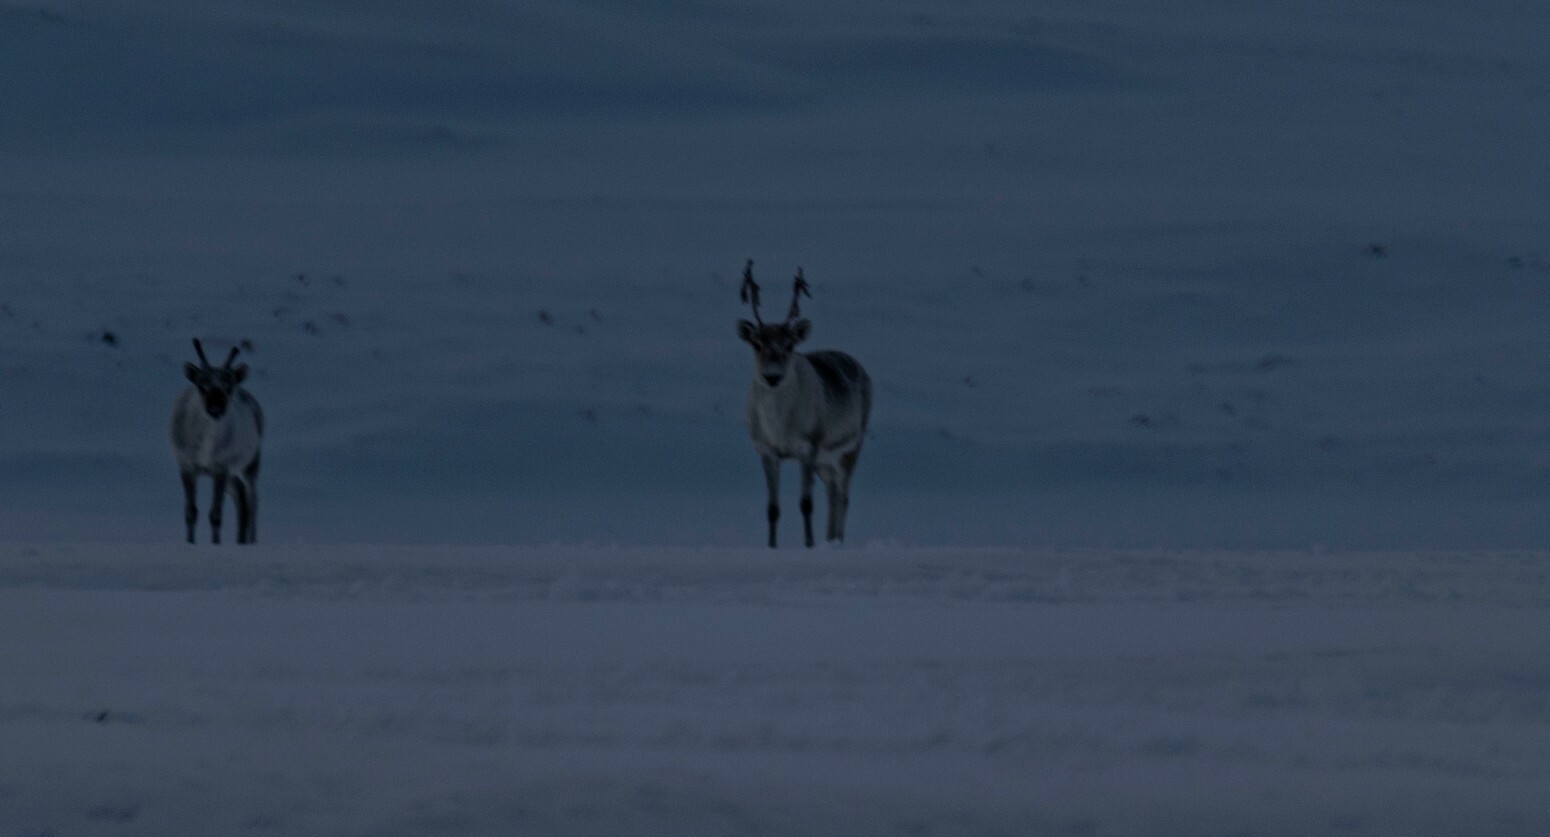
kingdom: Animalia
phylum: Chordata
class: Mammalia
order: Artiodactyla
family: Cervidae
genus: Rangifer
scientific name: Rangifer tarandus
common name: Reindeer
